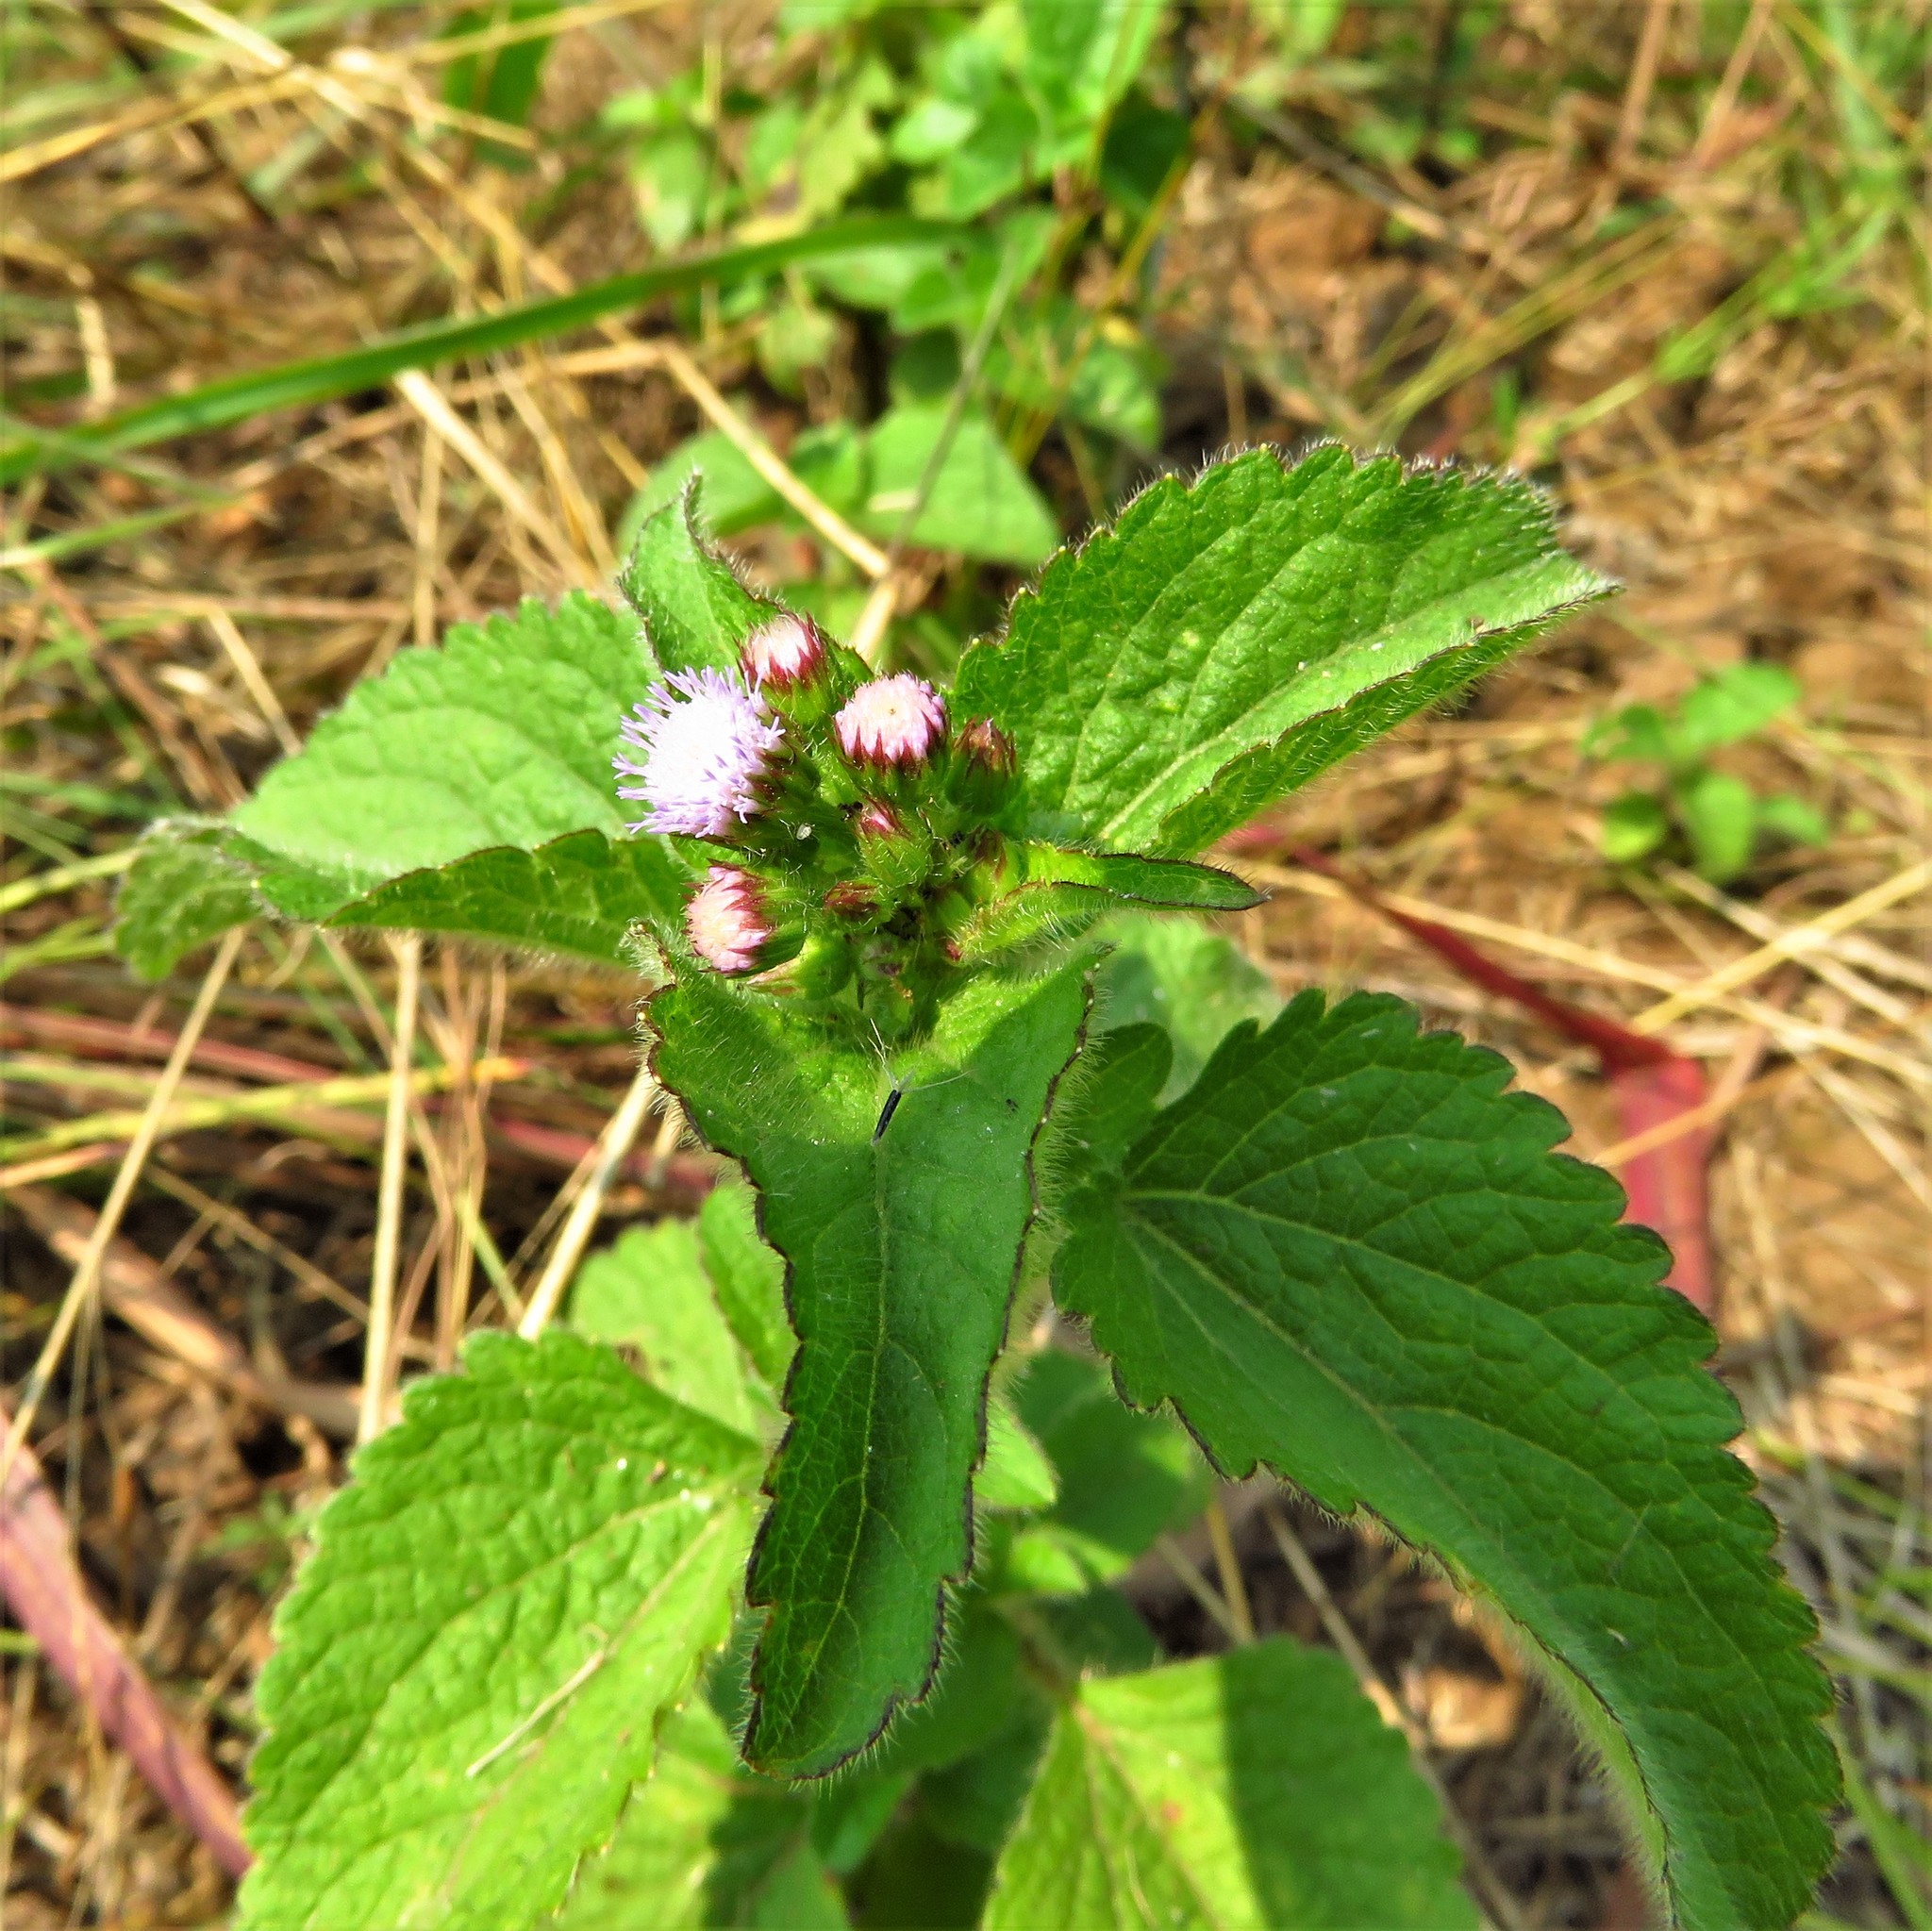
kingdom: Plantae
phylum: Tracheophyta
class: Magnoliopsida
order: Asterales
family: Asteraceae
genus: Ageratum
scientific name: Ageratum conyzoides
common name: Tropical whiteweed
